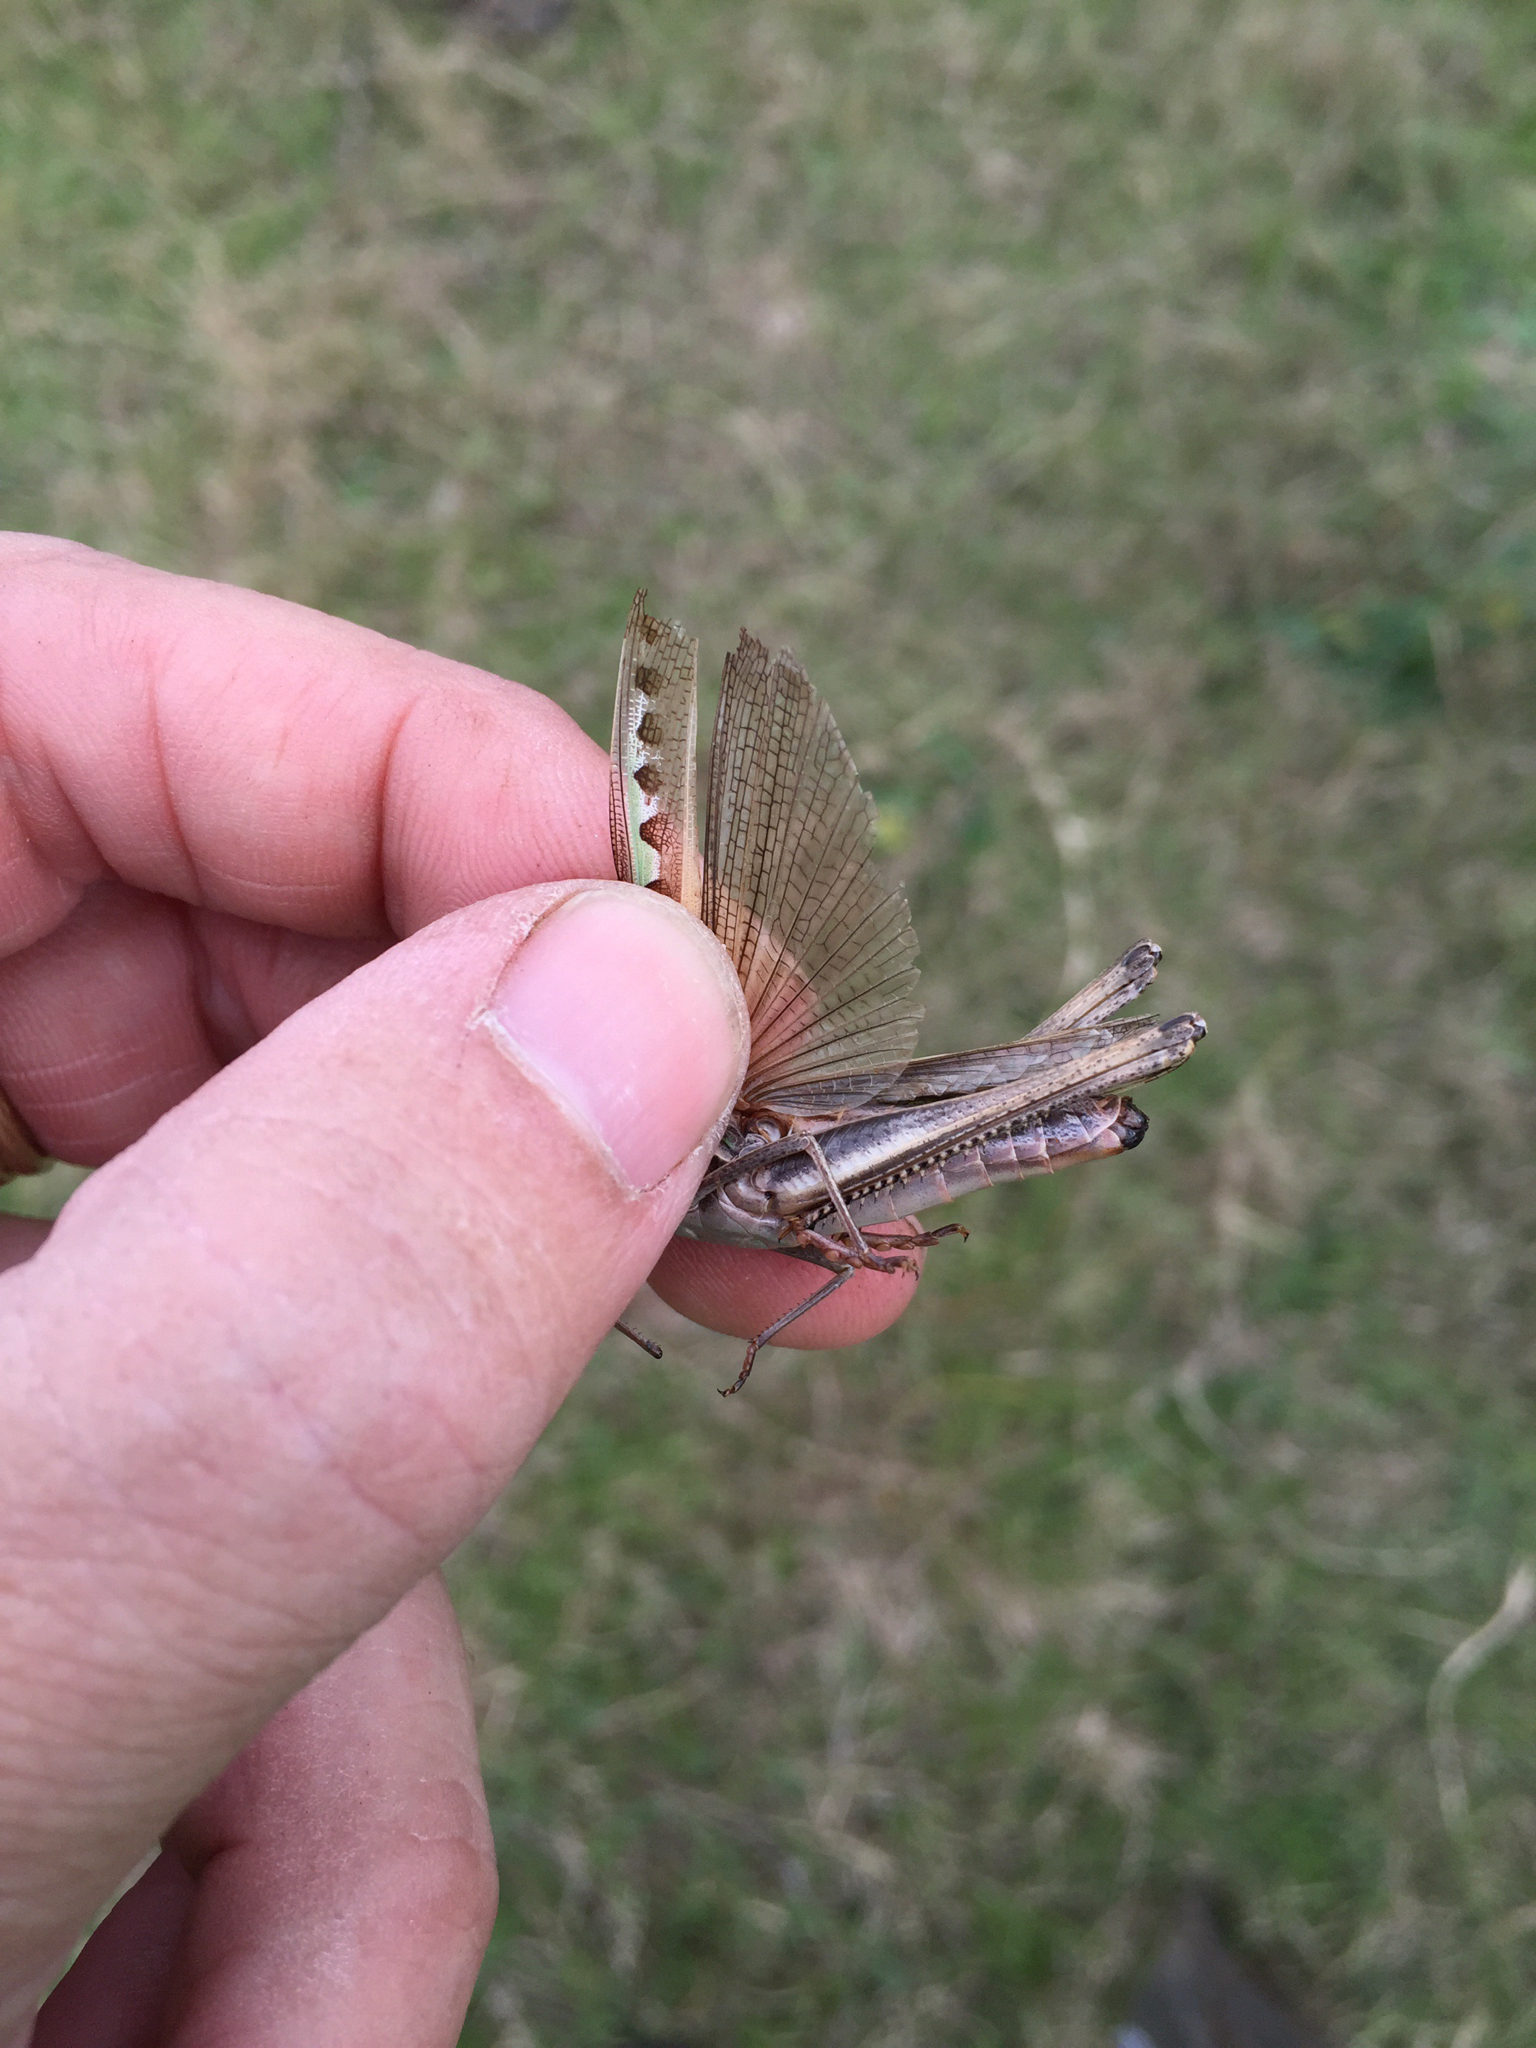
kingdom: Animalia
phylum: Arthropoda
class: Insecta
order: Orthoptera
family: Acrididae
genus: Syrbula
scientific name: Syrbula admirabilis
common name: Handsome grasshopper
